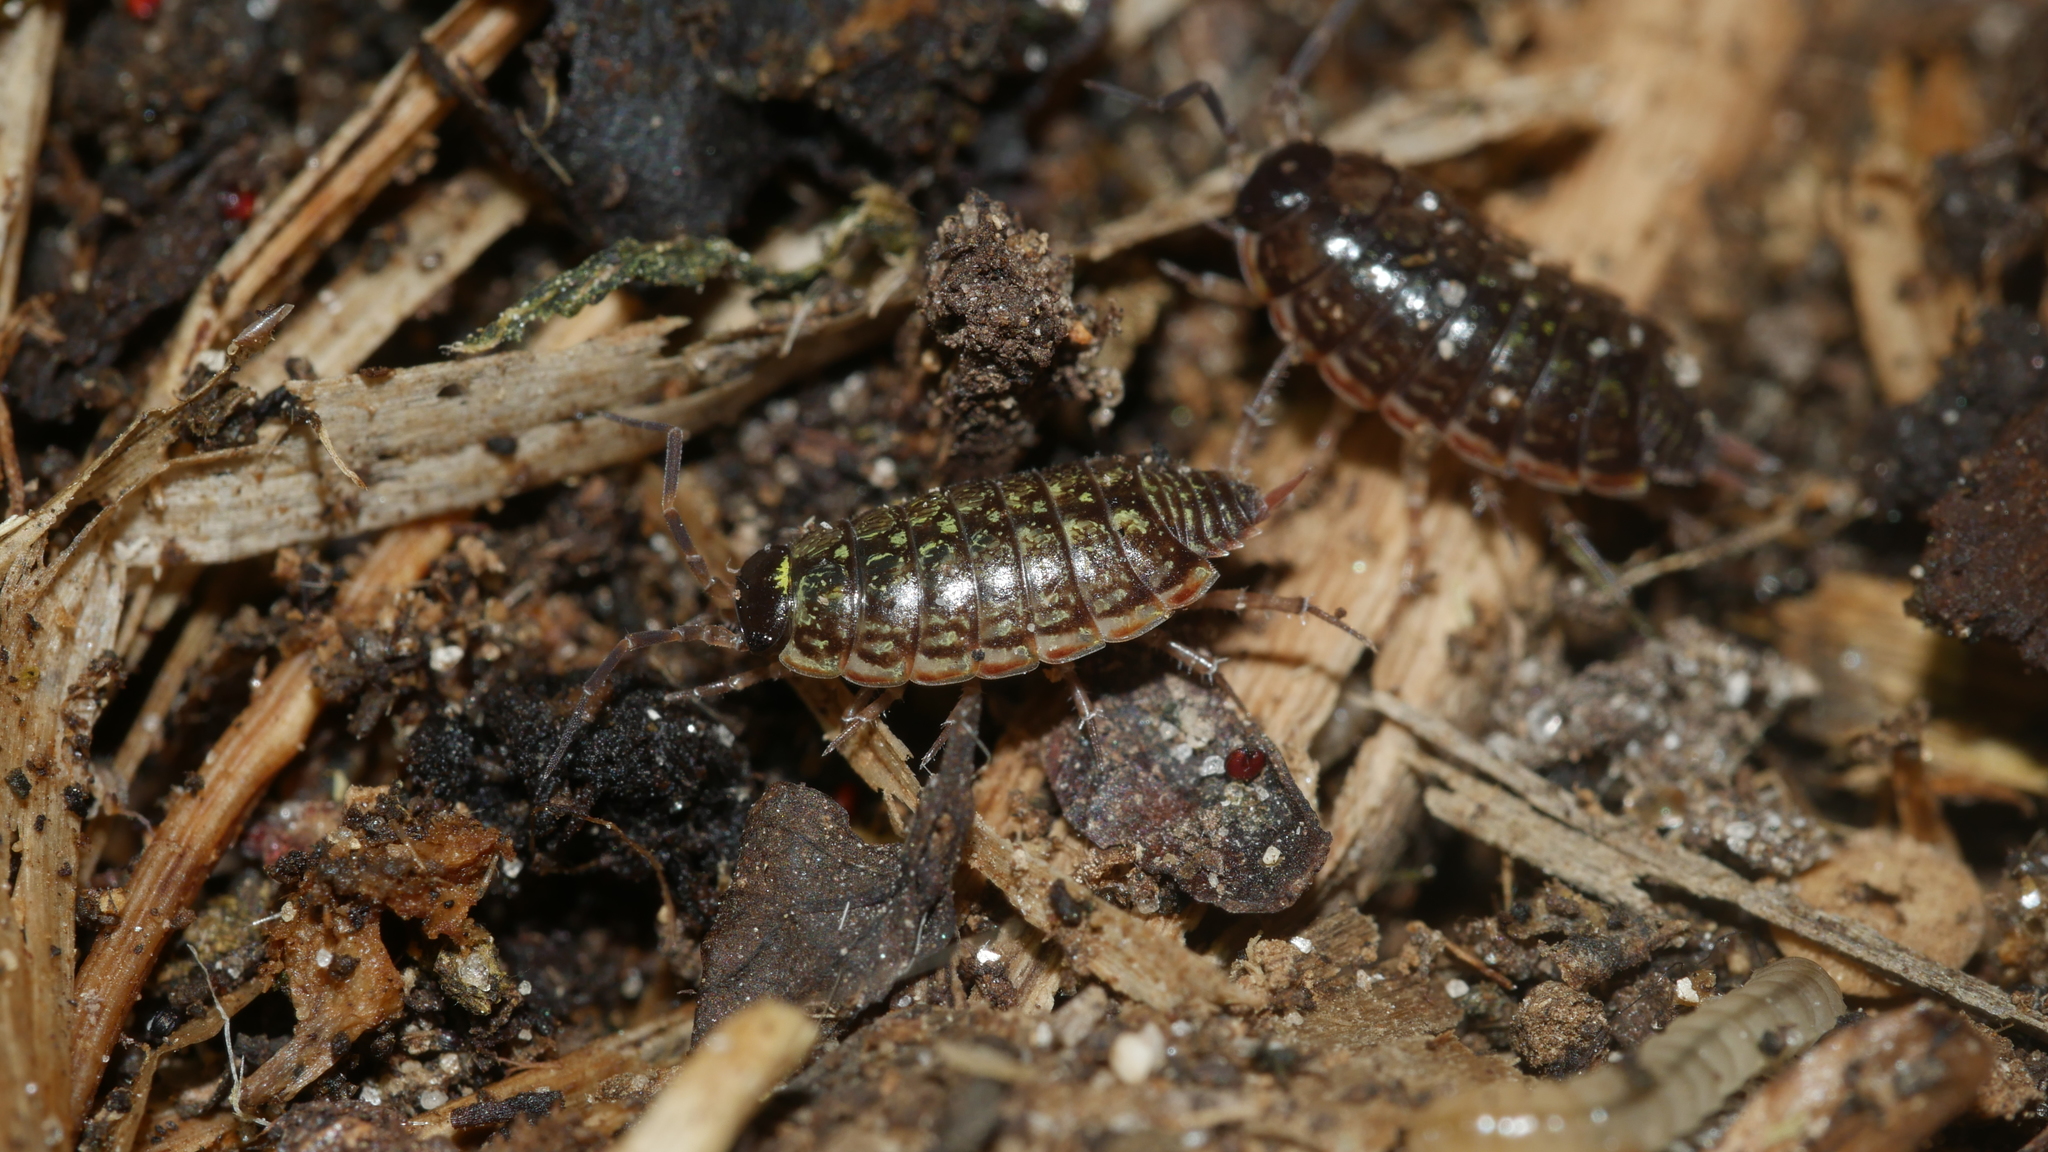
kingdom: Animalia
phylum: Arthropoda
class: Malacostraca
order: Isopoda
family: Philosciidae
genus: Philoscia
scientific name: Philoscia muscorum
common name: Common striped woodlouse
